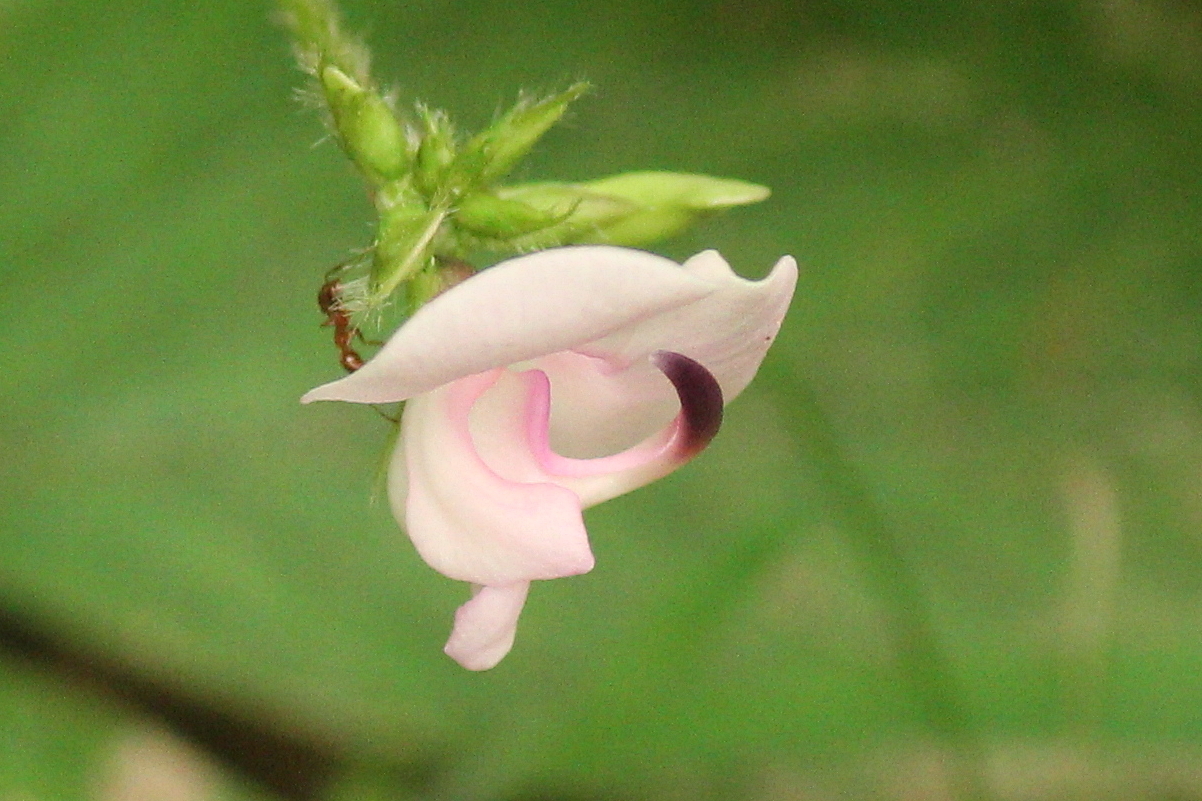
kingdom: Plantae
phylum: Tracheophyta
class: Magnoliopsida
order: Fabales
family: Fabaceae
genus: Strophostyles
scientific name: Strophostyles helvola
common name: Trailing wild bean
